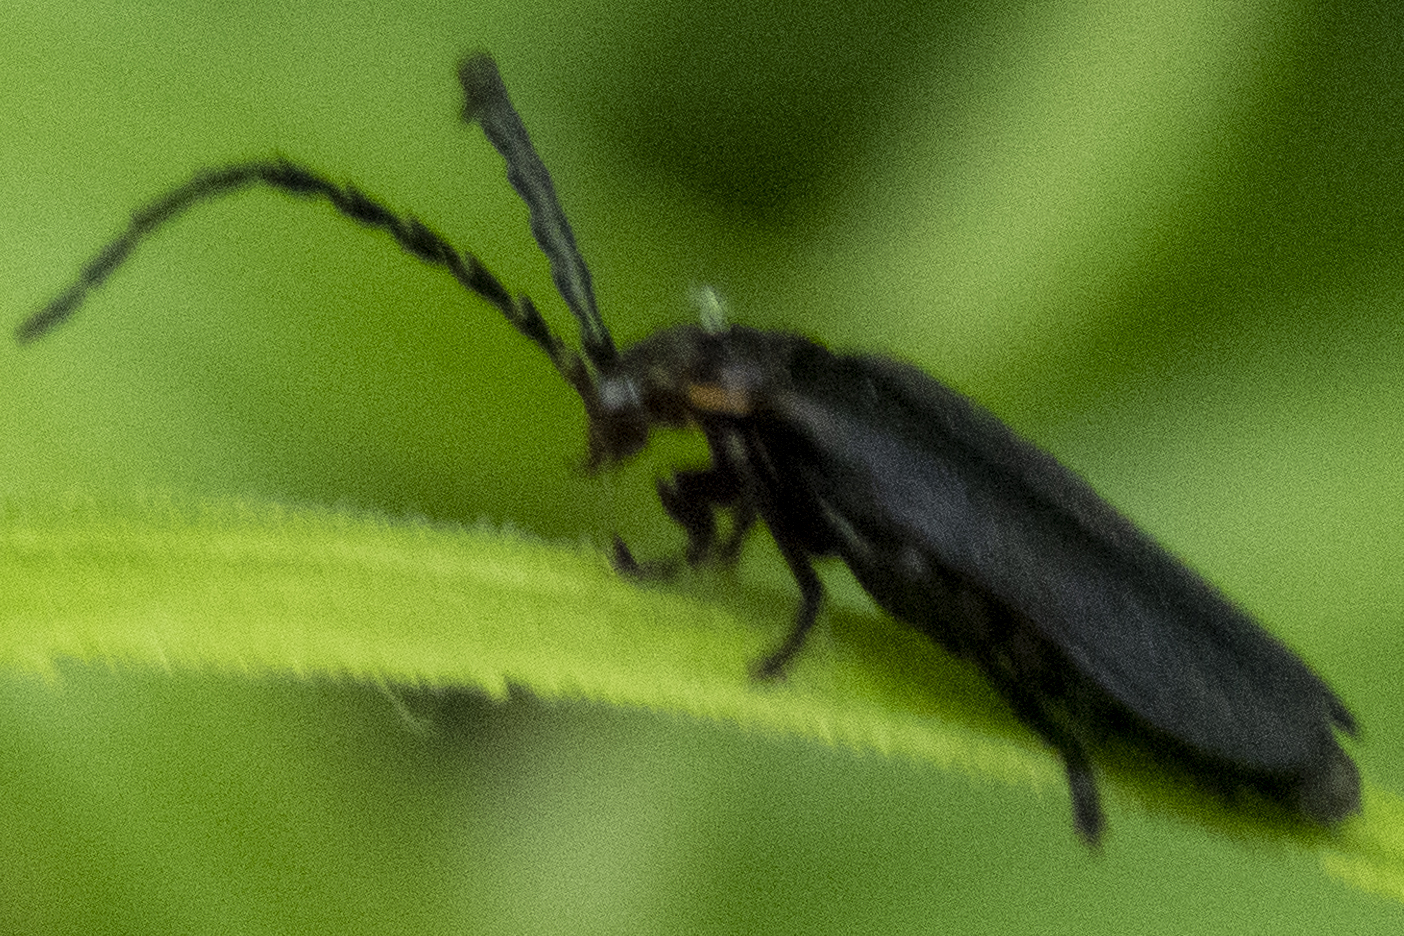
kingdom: Animalia
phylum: Arthropoda
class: Insecta
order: Coleoptera
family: Cantharidae
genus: Polemius
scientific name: Polemius laticornis
